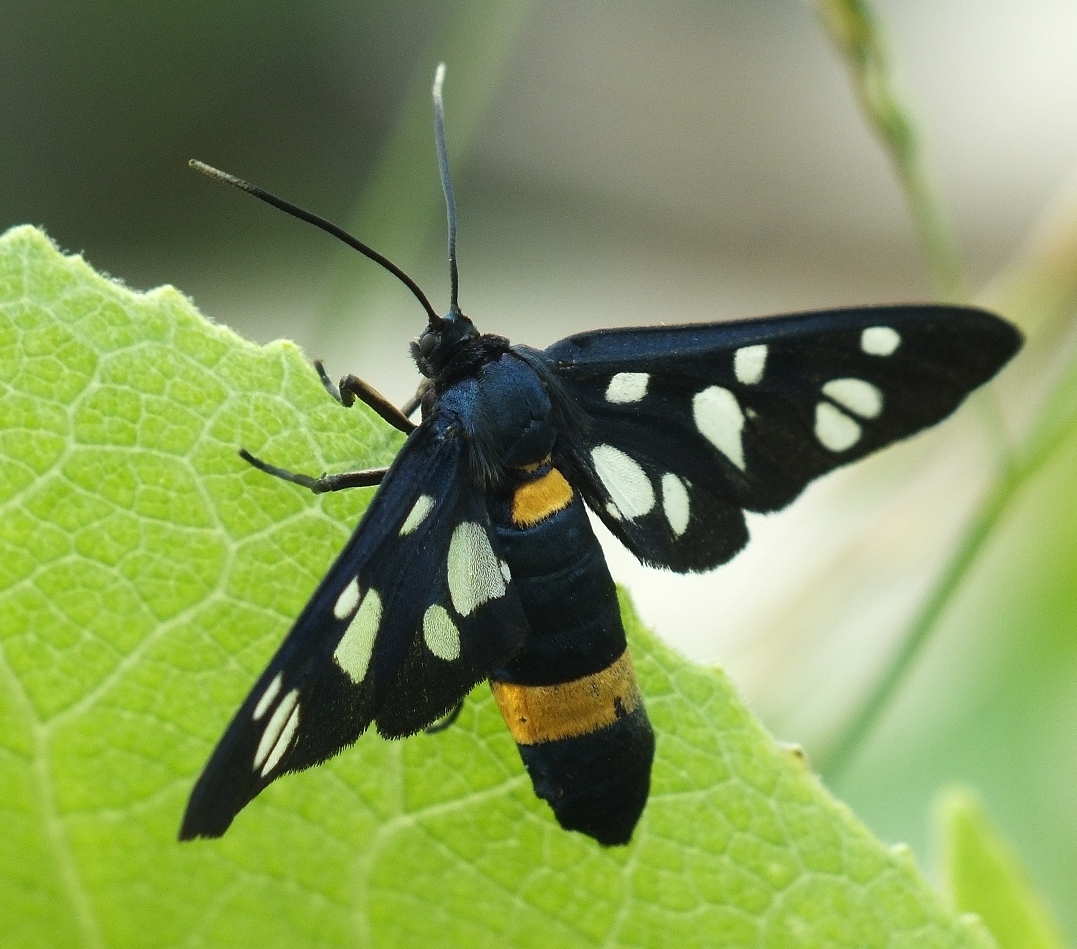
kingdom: Animalia
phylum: Arthropoda
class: Insecta
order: Lepidoptera
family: Erebidae
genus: Amata
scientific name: Amata nigricornis
